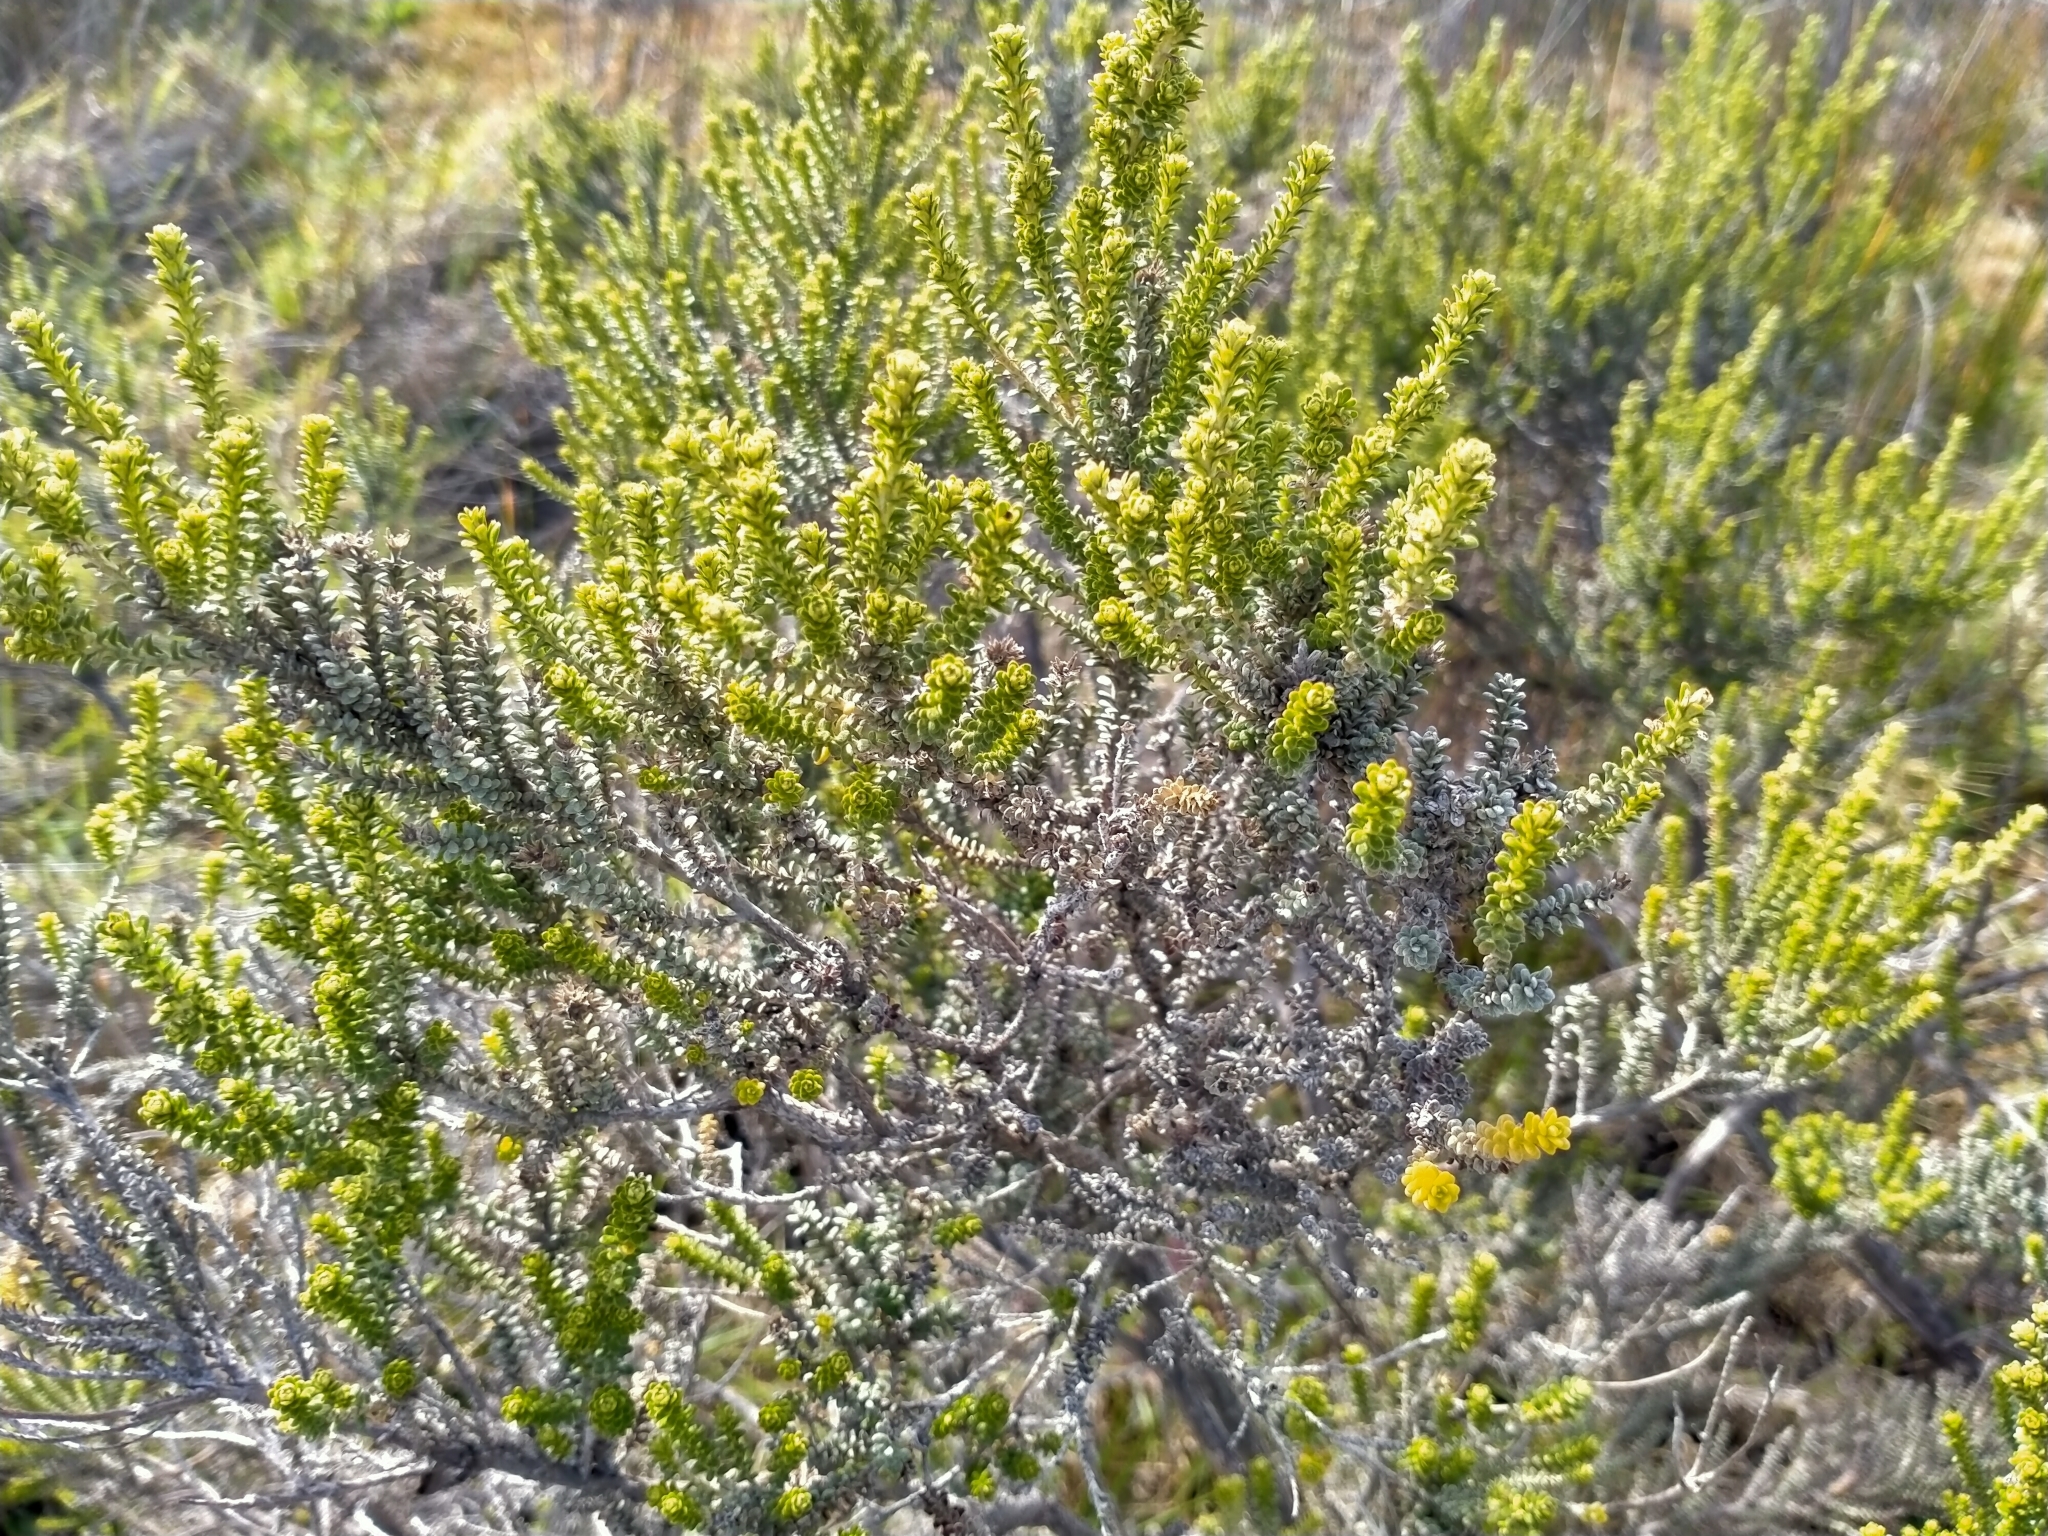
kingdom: Plantae
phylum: Tracheophyta
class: Magnoliopsida
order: Asterales
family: Asteraceae
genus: Ozothamnus
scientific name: Ozothamnus leptophyllus
